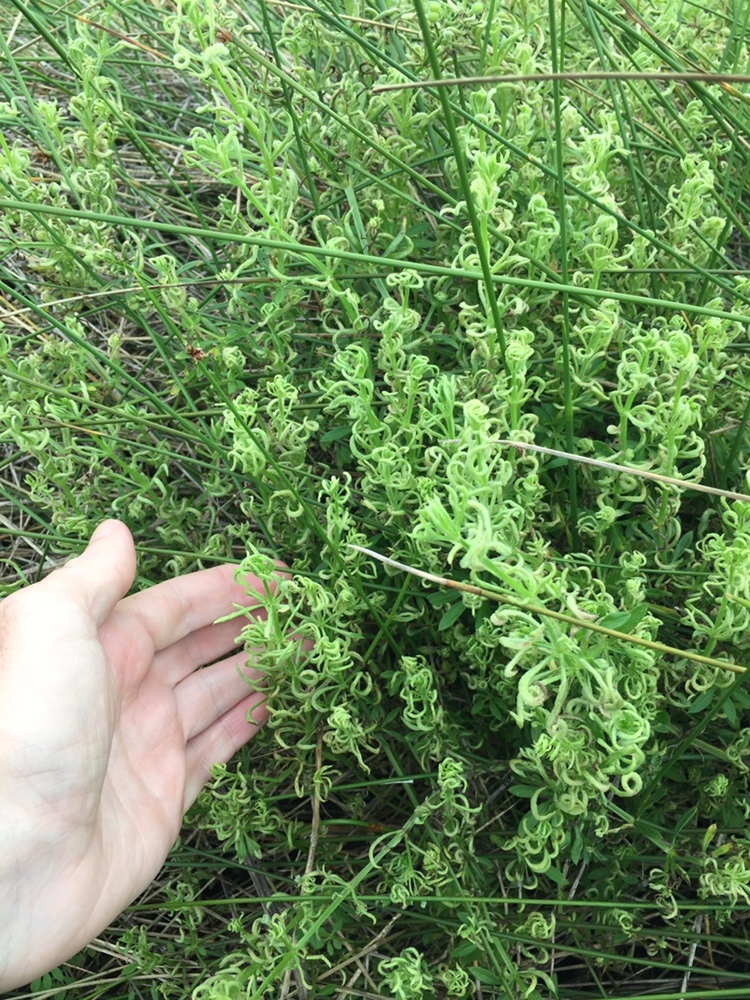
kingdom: Animalia
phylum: Arthropoda
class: Arachnida
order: Trombidiformes
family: Eriophyidae
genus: Cecidophyes
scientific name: Cecidophyes rouhollahi
